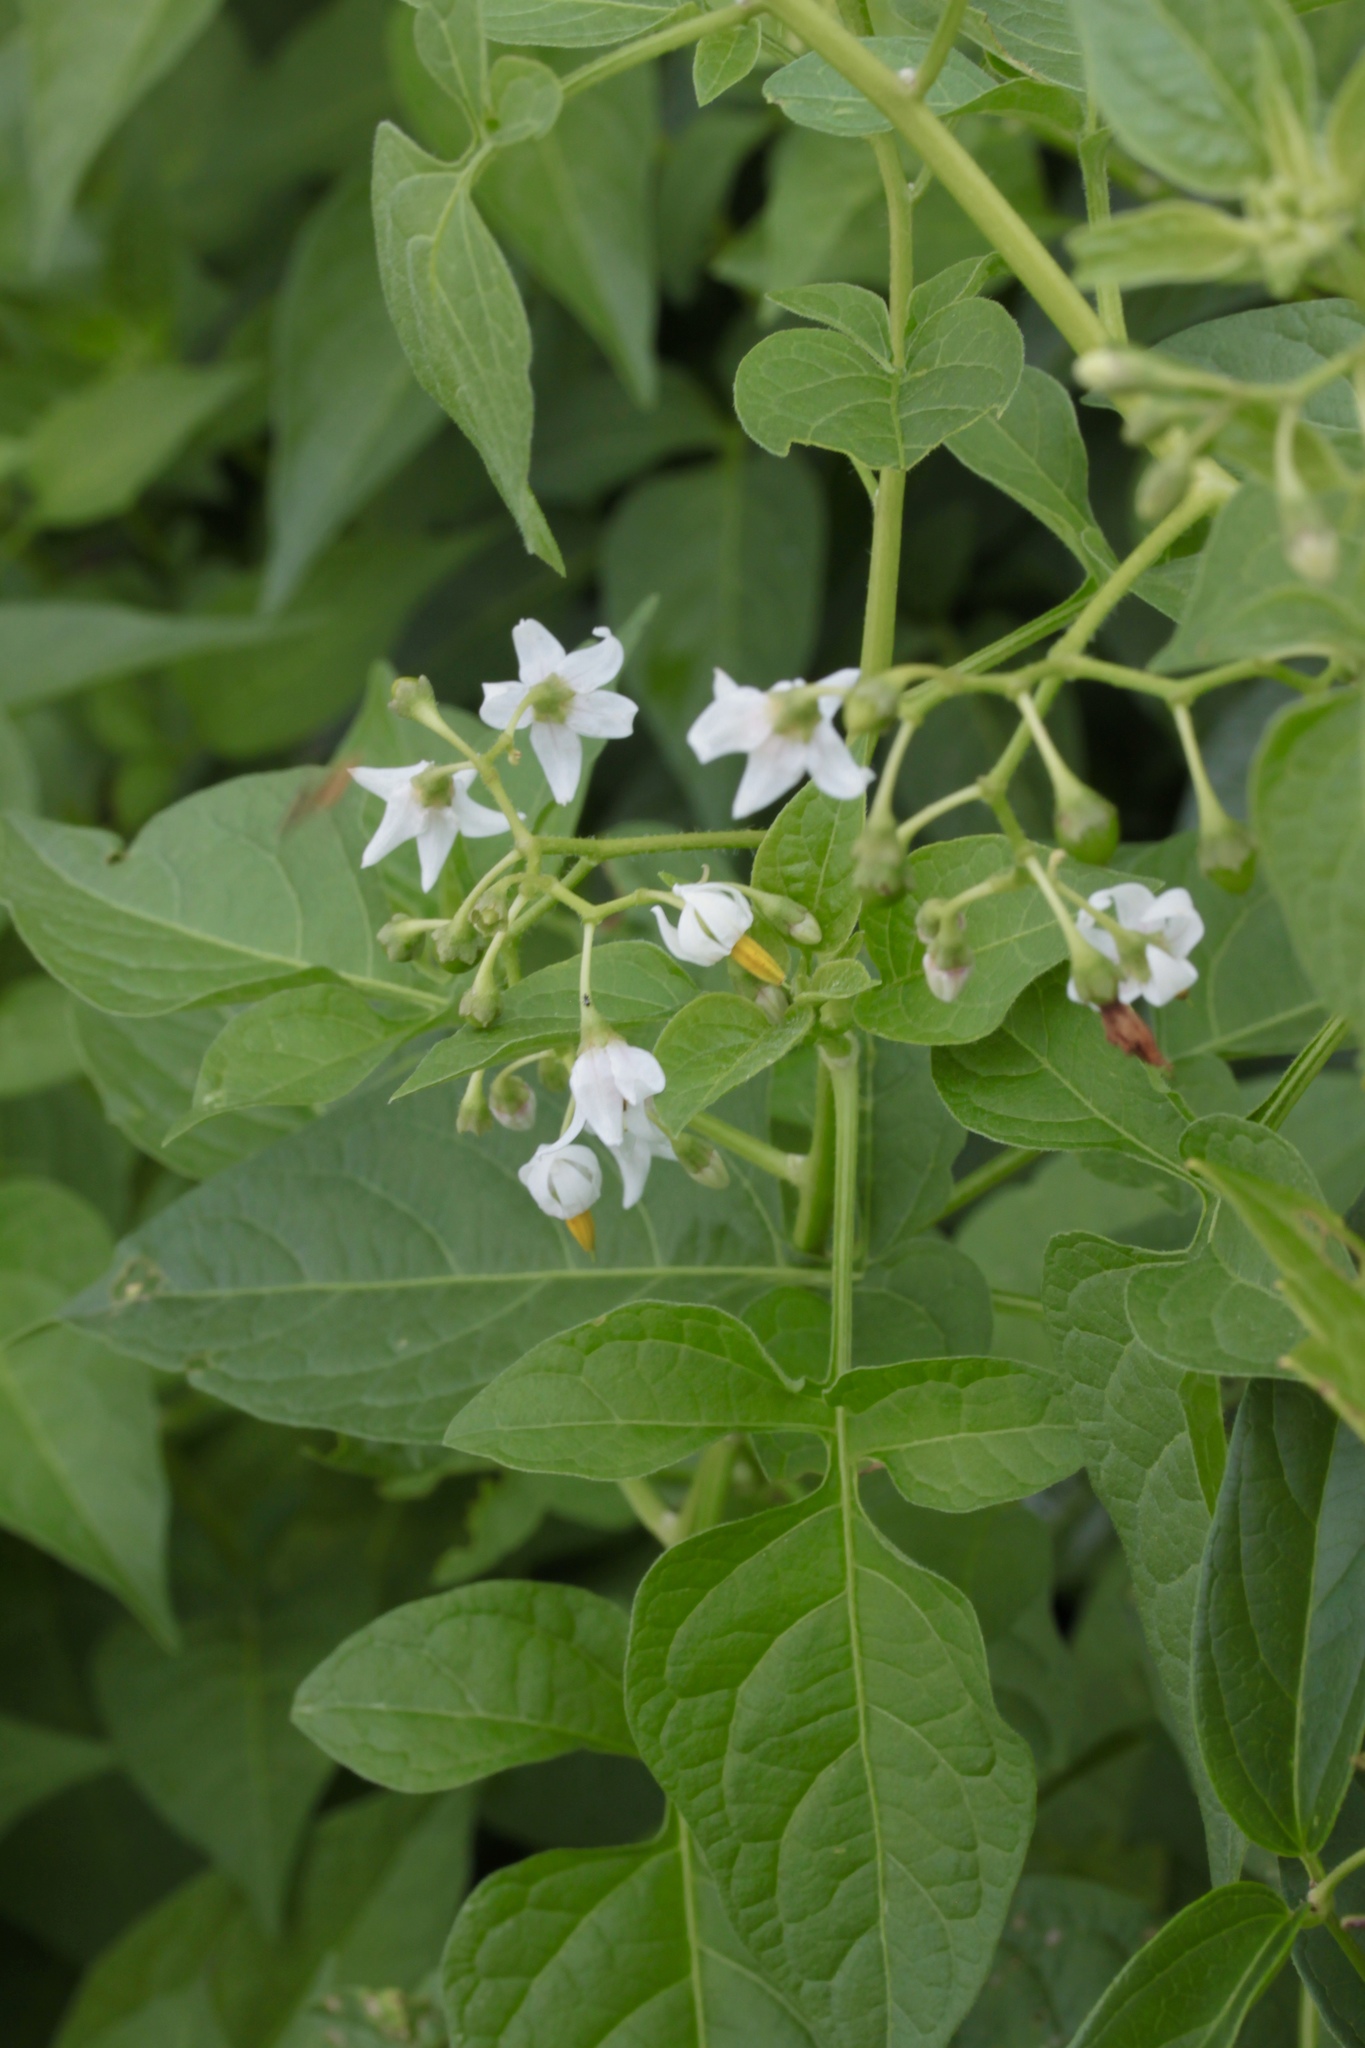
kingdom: Plantae
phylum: Tracheophyta
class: Magnoliopsida
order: Solanales
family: Solanaceae
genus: Solanum
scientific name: Solanum dulcamara
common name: Climbing nightshade
